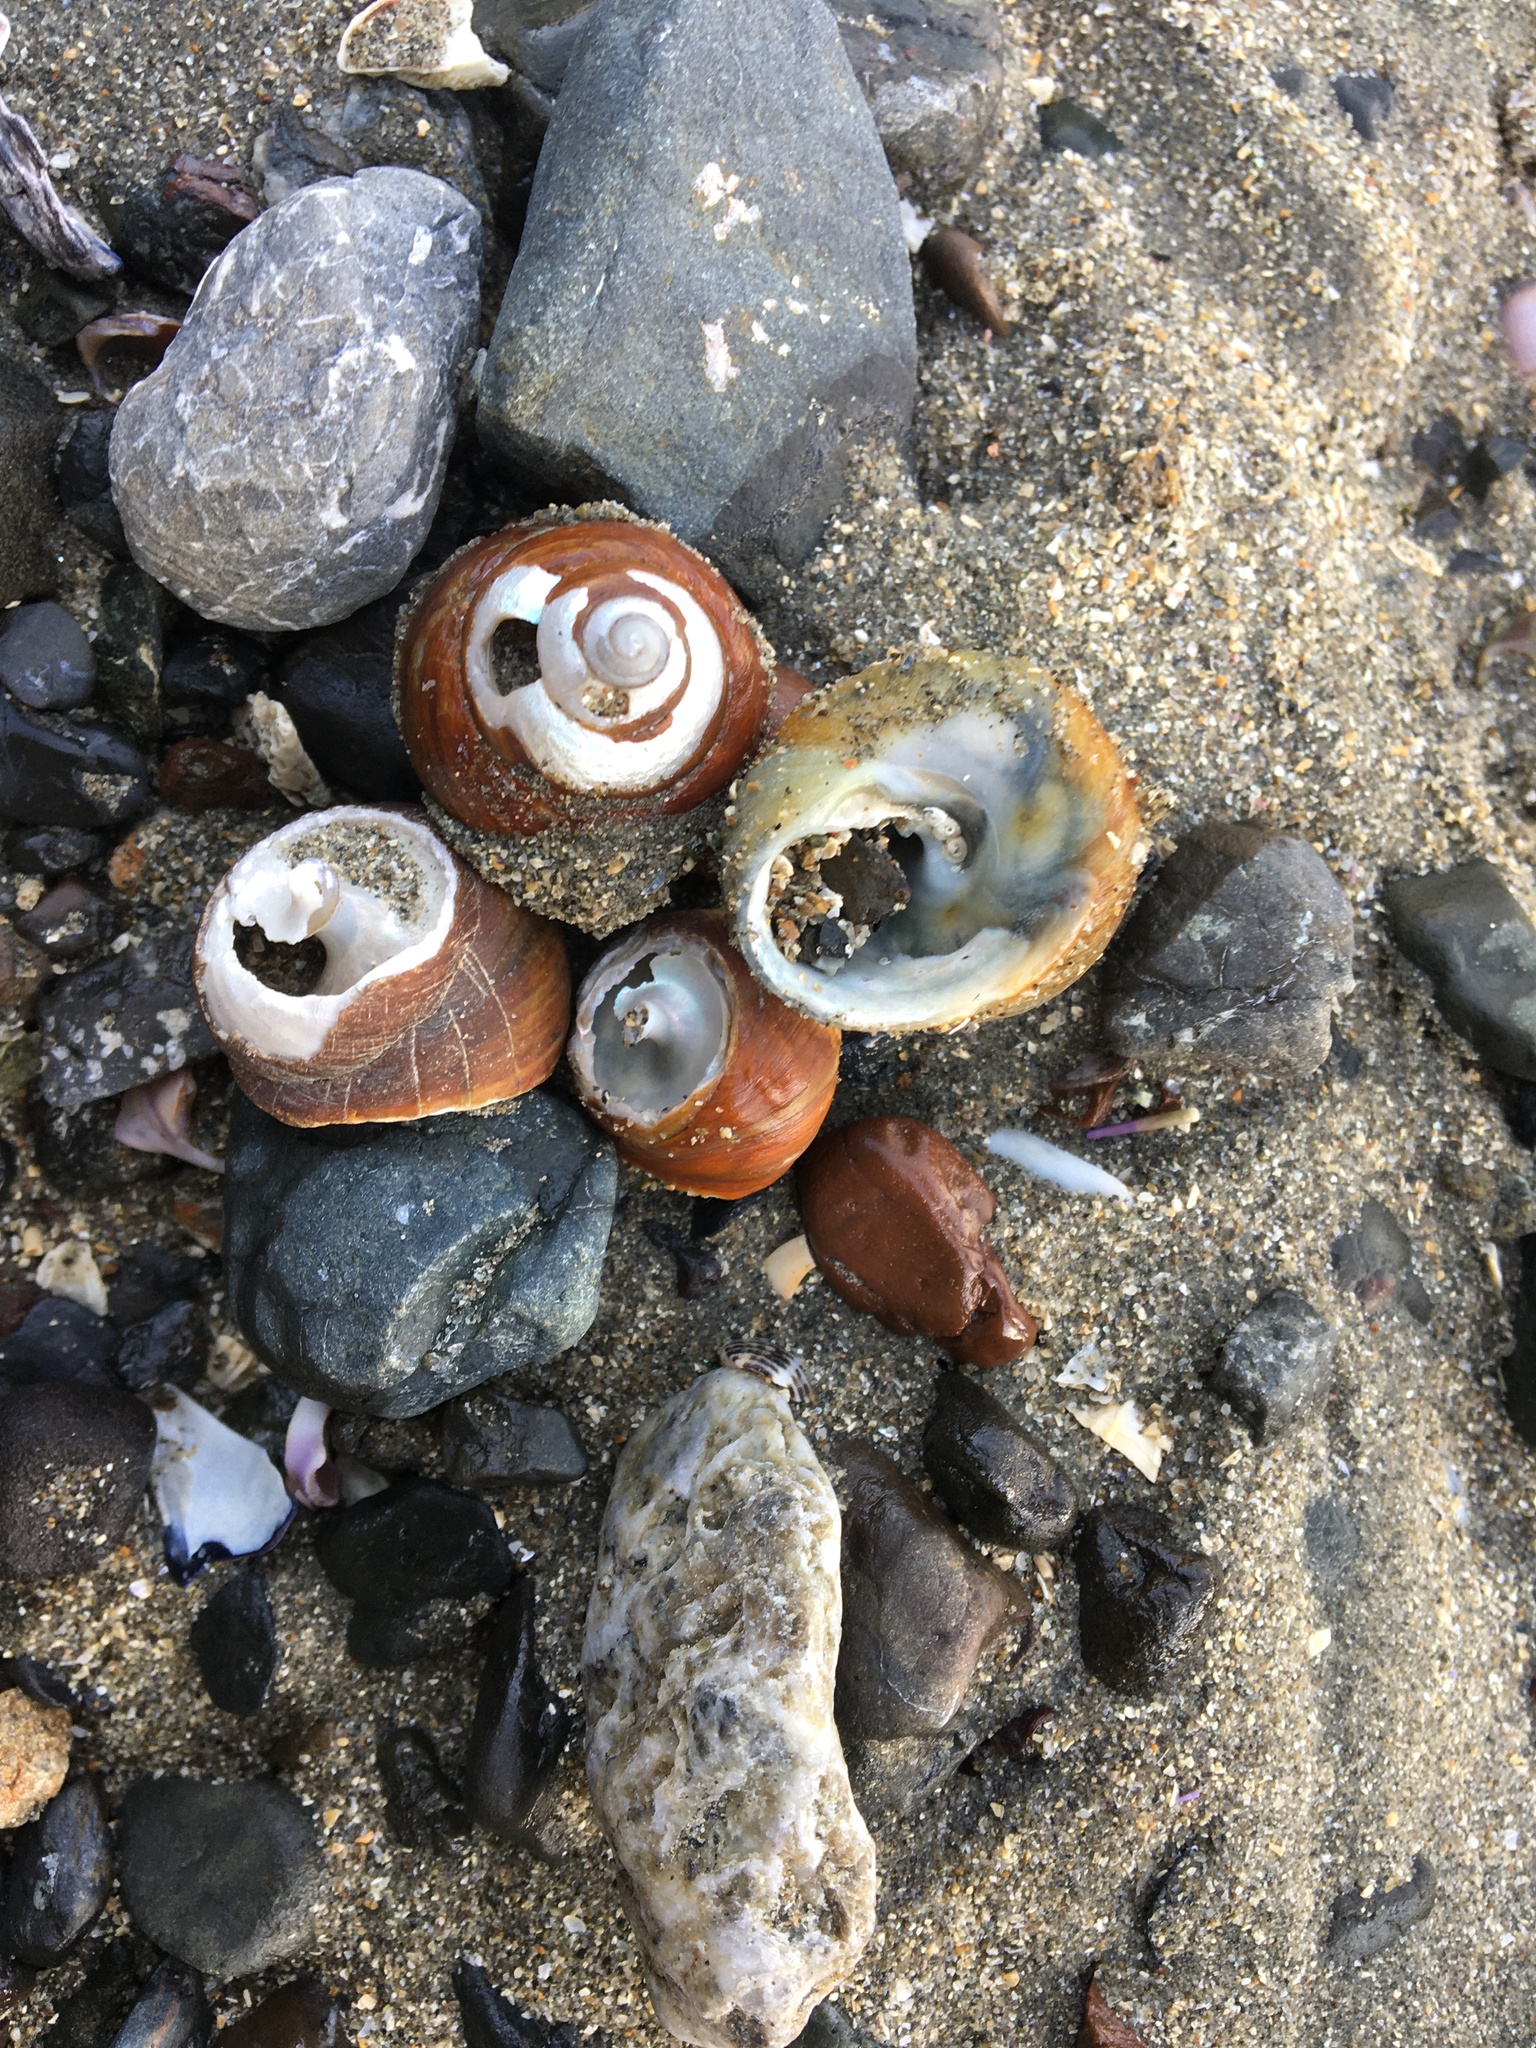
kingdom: Animalia
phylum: Mollusca
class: Gastropoda
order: Trochida
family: Tegulidae
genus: Tegula
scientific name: Tegula brunnea
